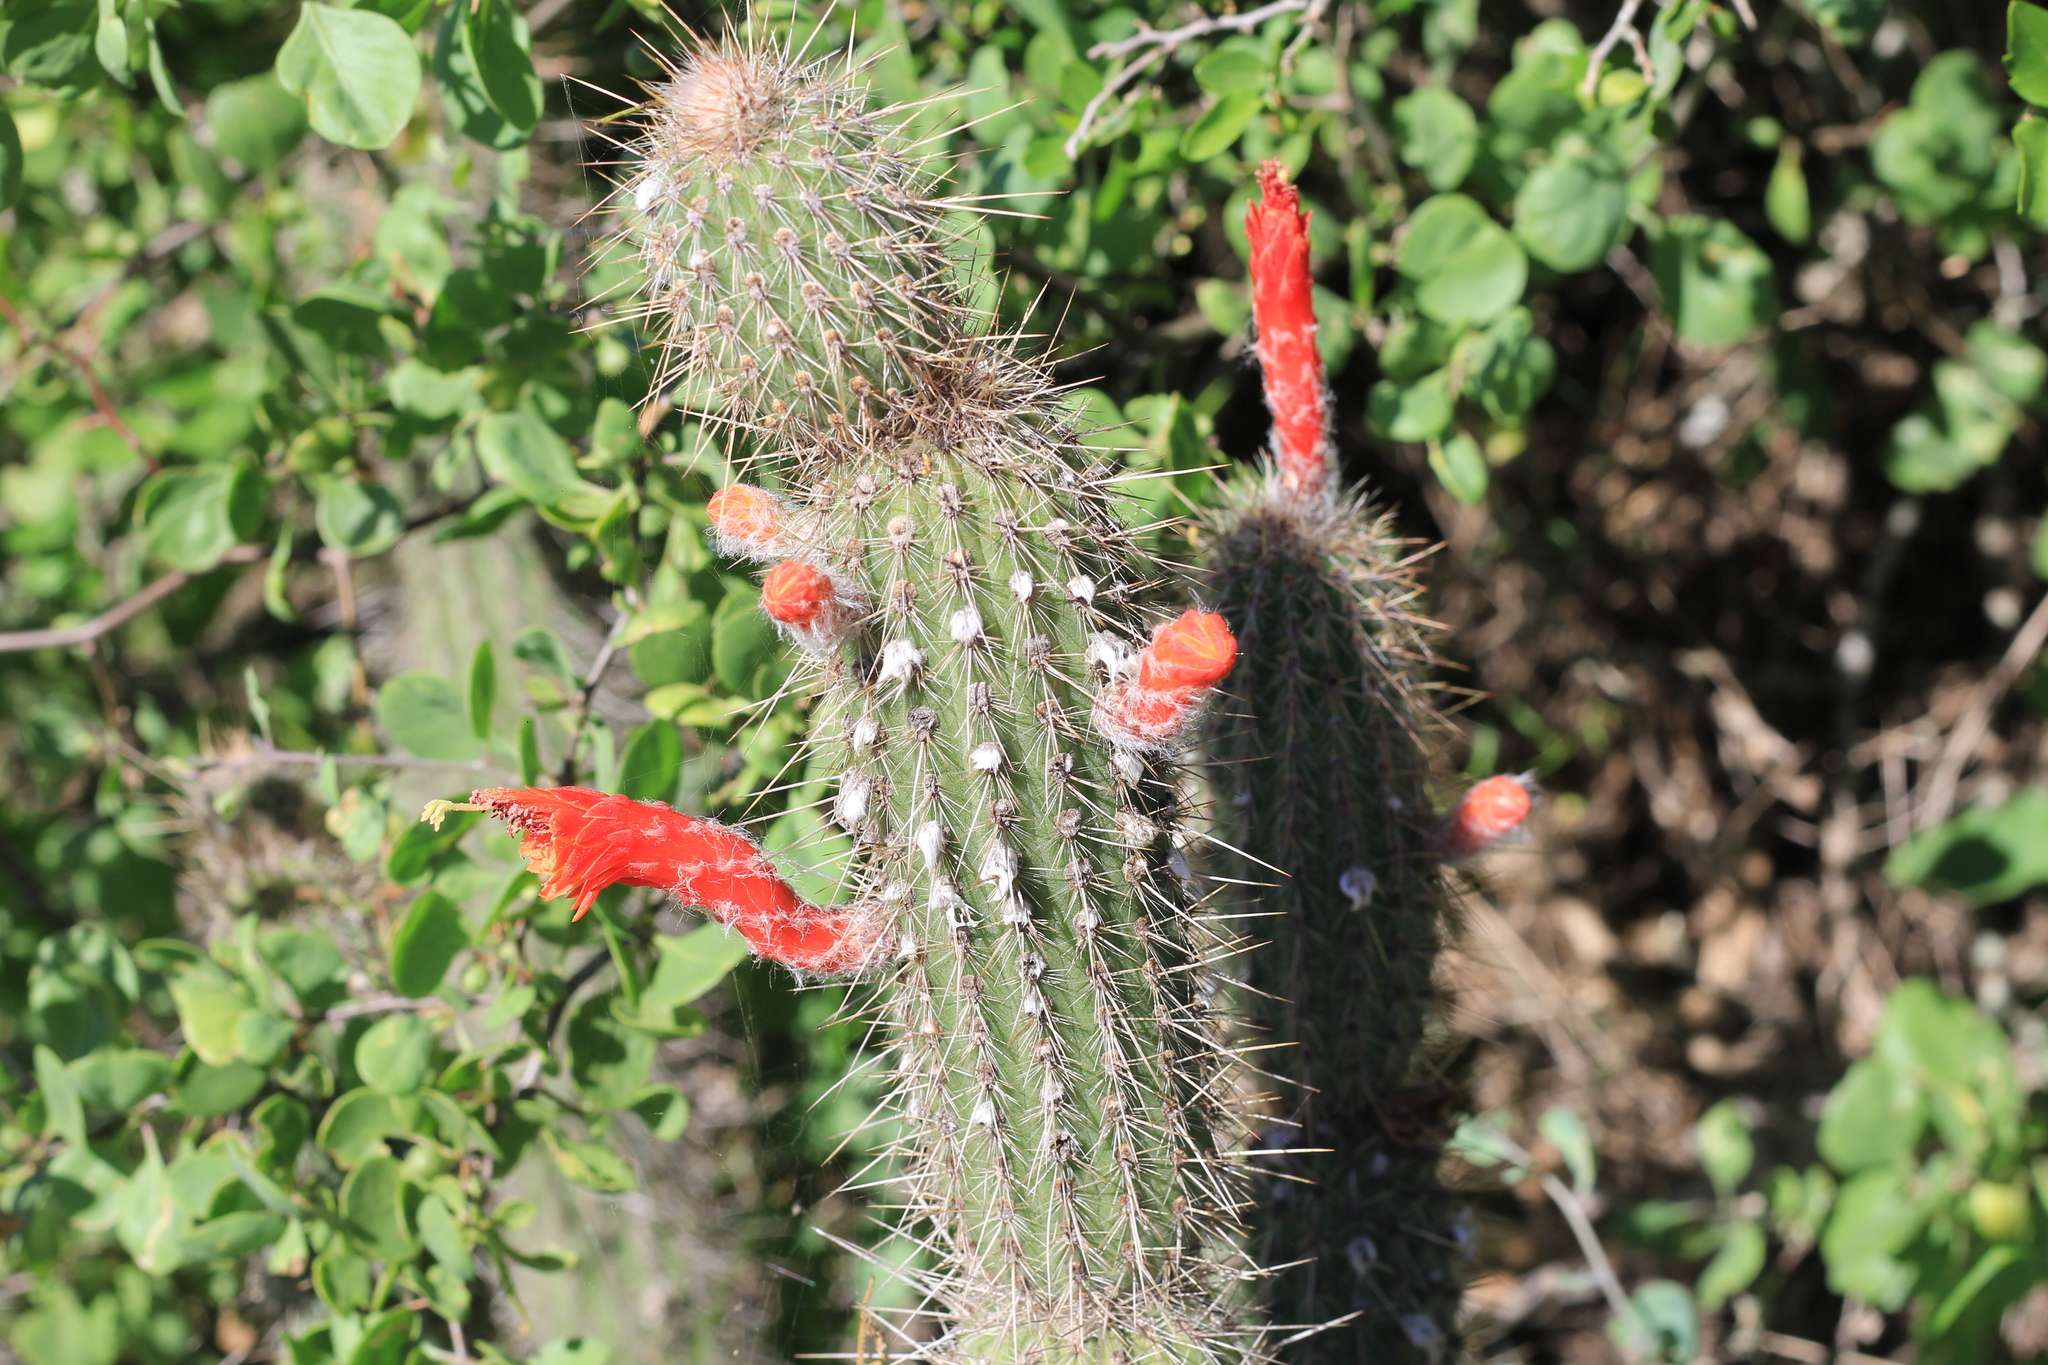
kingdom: Plantae
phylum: Tracheophyta
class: Magnoliopsida
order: Caryophyllales
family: Cactaceae
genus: Cleistocactus
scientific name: Cleistocactus baumannii
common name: Scarlet-bugler
